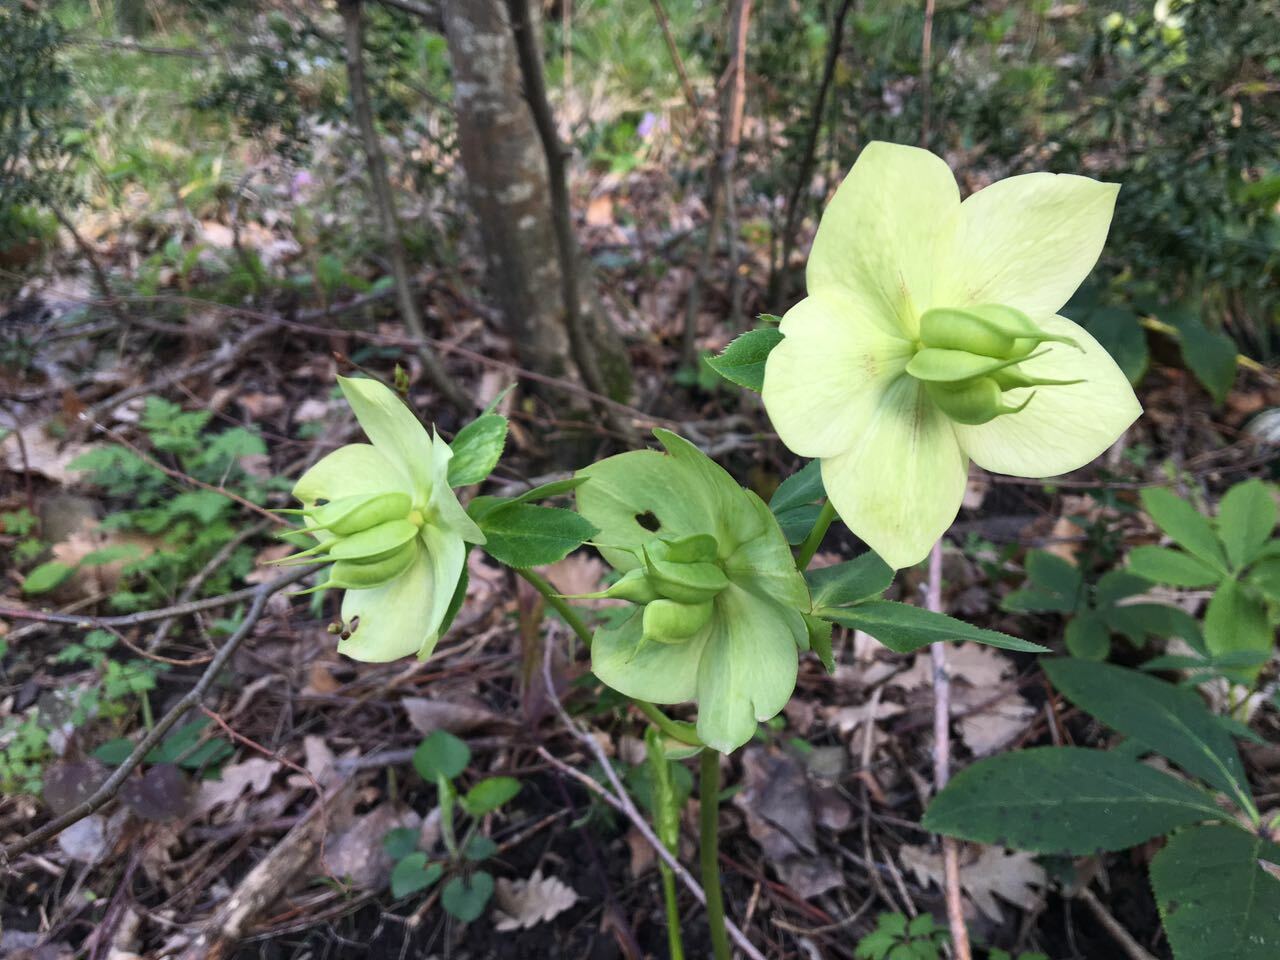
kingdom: Plantae
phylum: Tracheophyta
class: Magnoliopsida
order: Ranunculales
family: Ranunculaceae
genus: Helleborus
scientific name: Helleborus orientalis
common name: Lenten-rose
